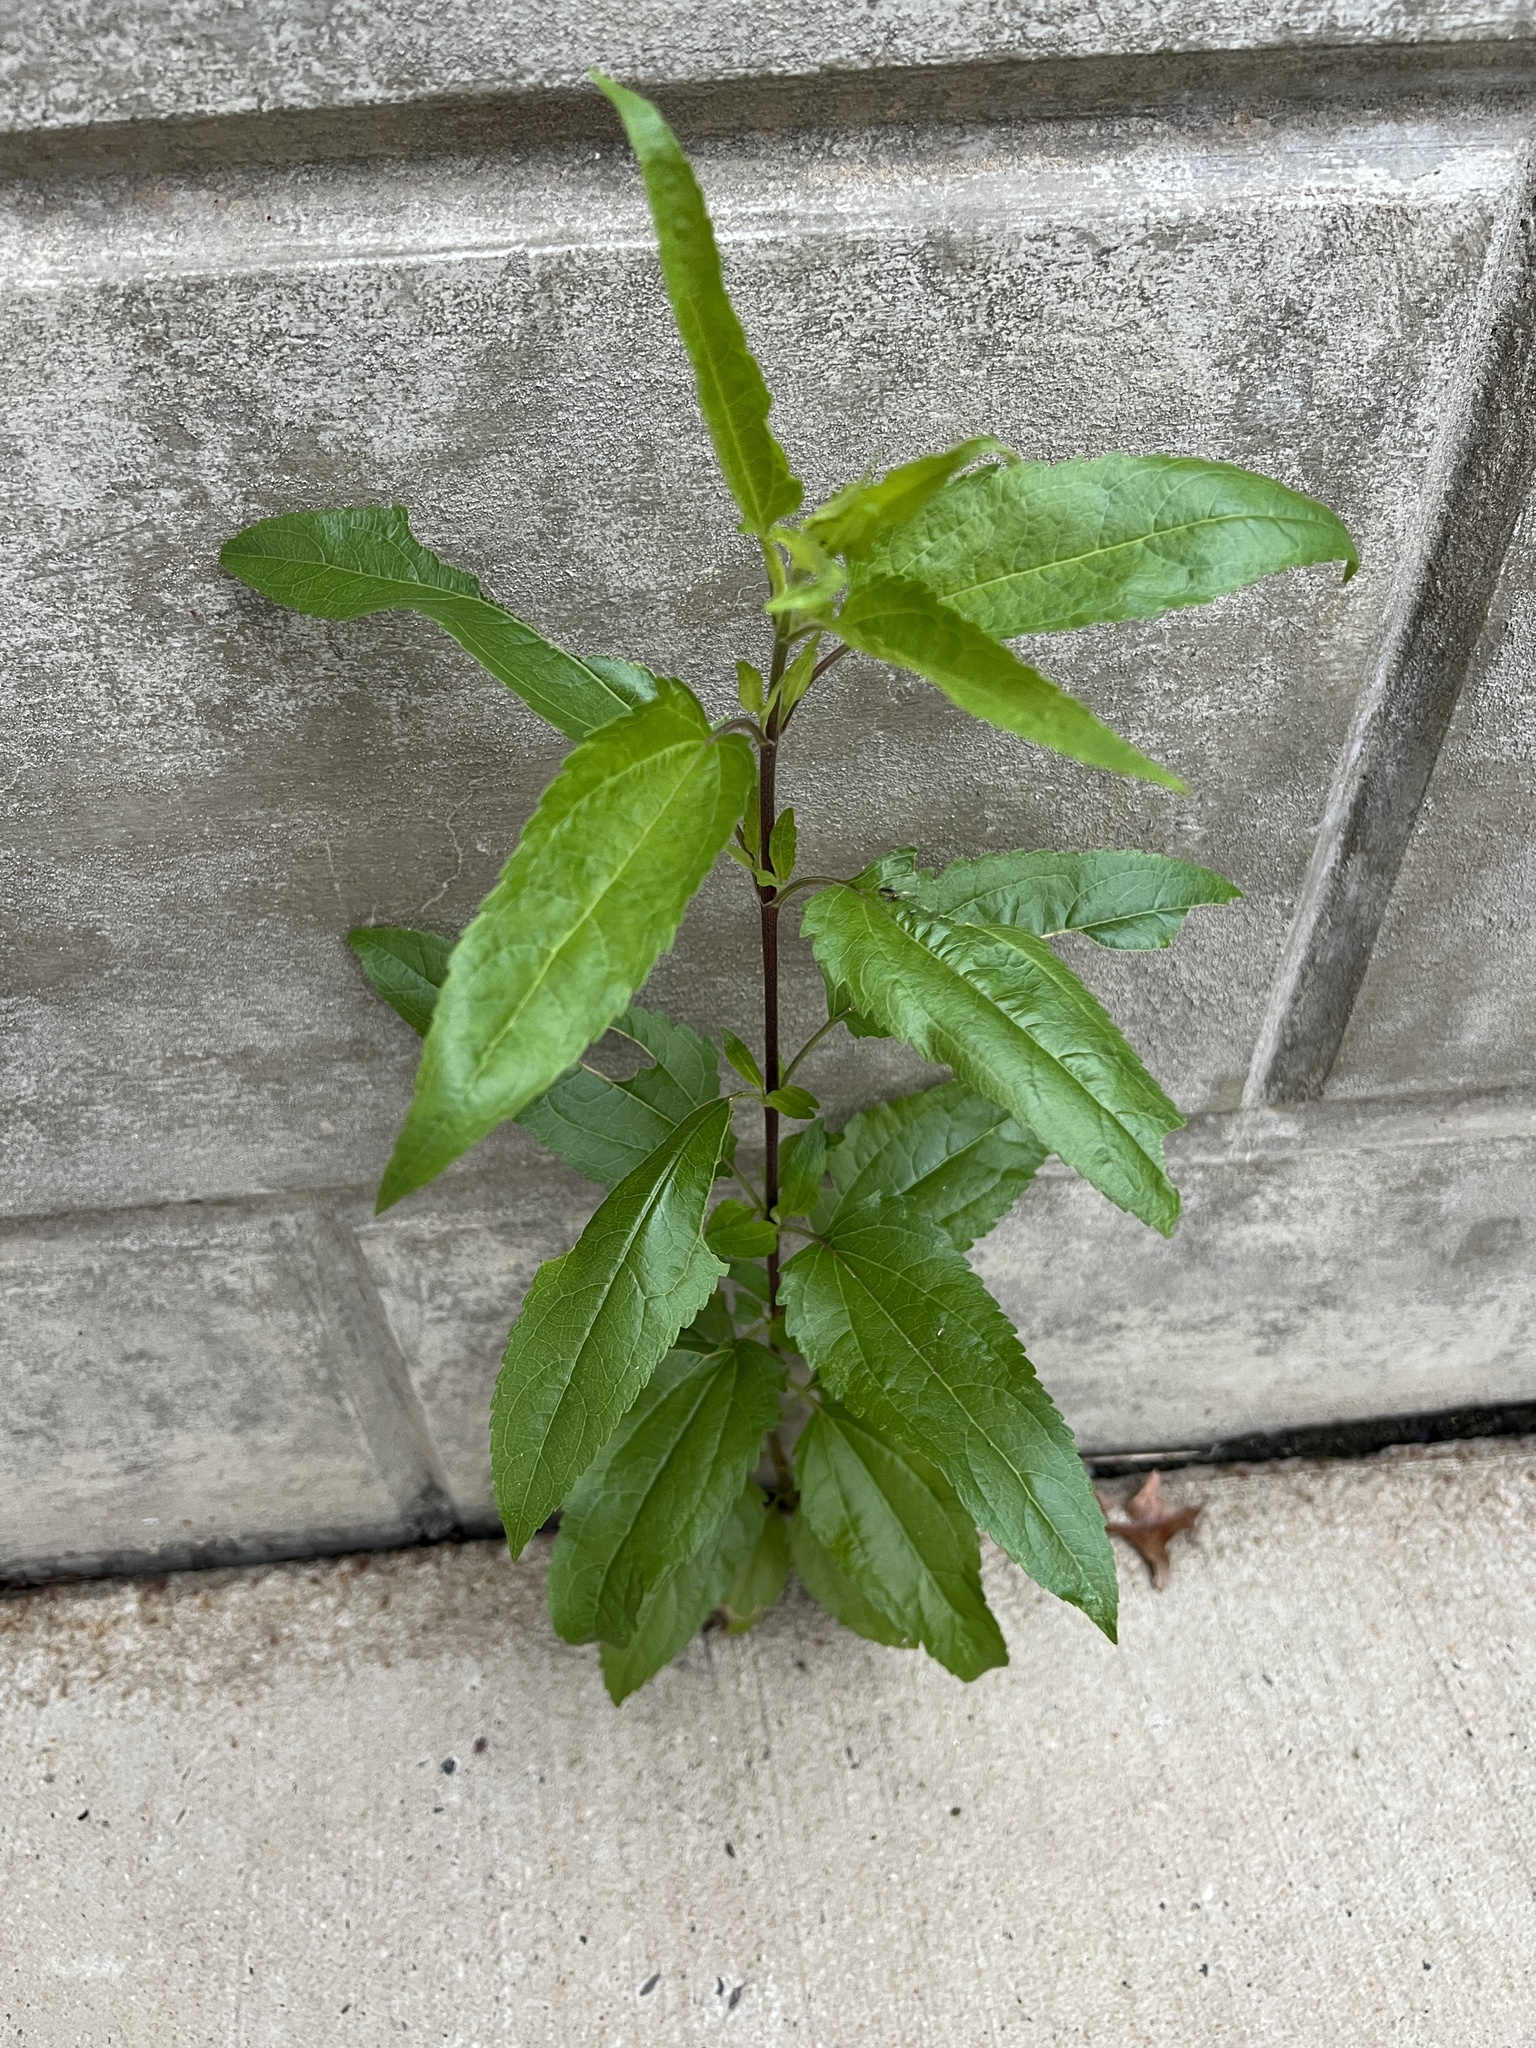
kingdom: Plantae
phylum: Tracheophyta
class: Magnoliopsida
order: Asterales
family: Asteraceae
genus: Eupatorium
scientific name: Eupatorium serotinum
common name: Late boneset
